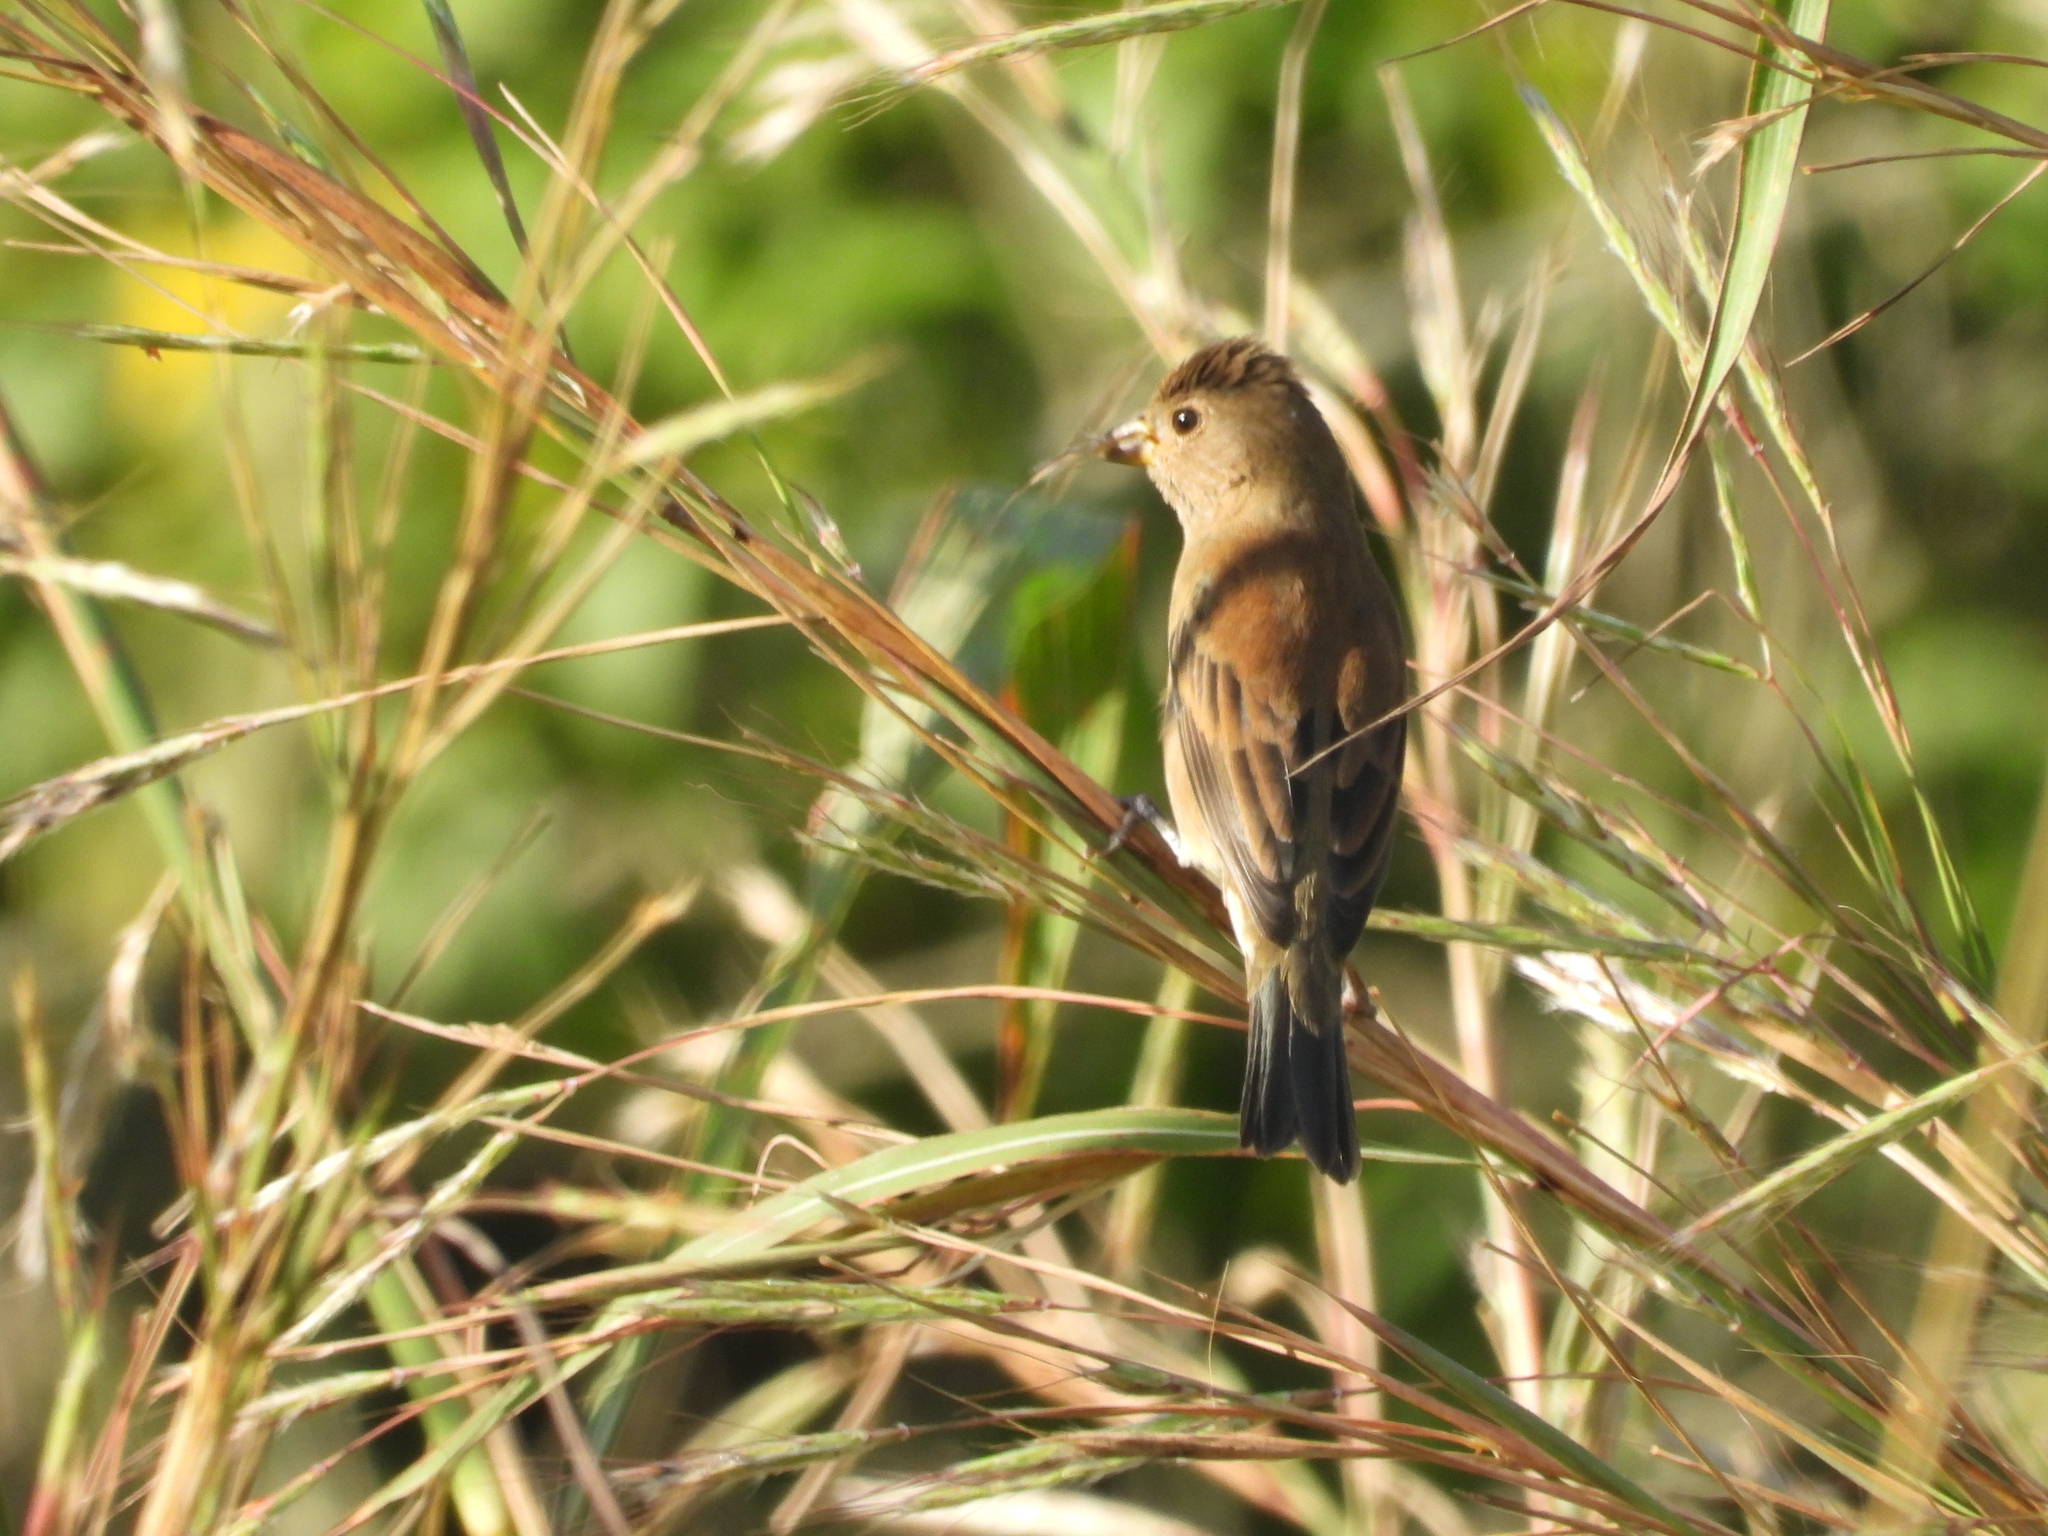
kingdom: Animalia
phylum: Chordata
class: Aves
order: Passeriformes
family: Cardinalidae
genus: Passerina
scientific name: Passerina cyanea
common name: Indigo bunting
